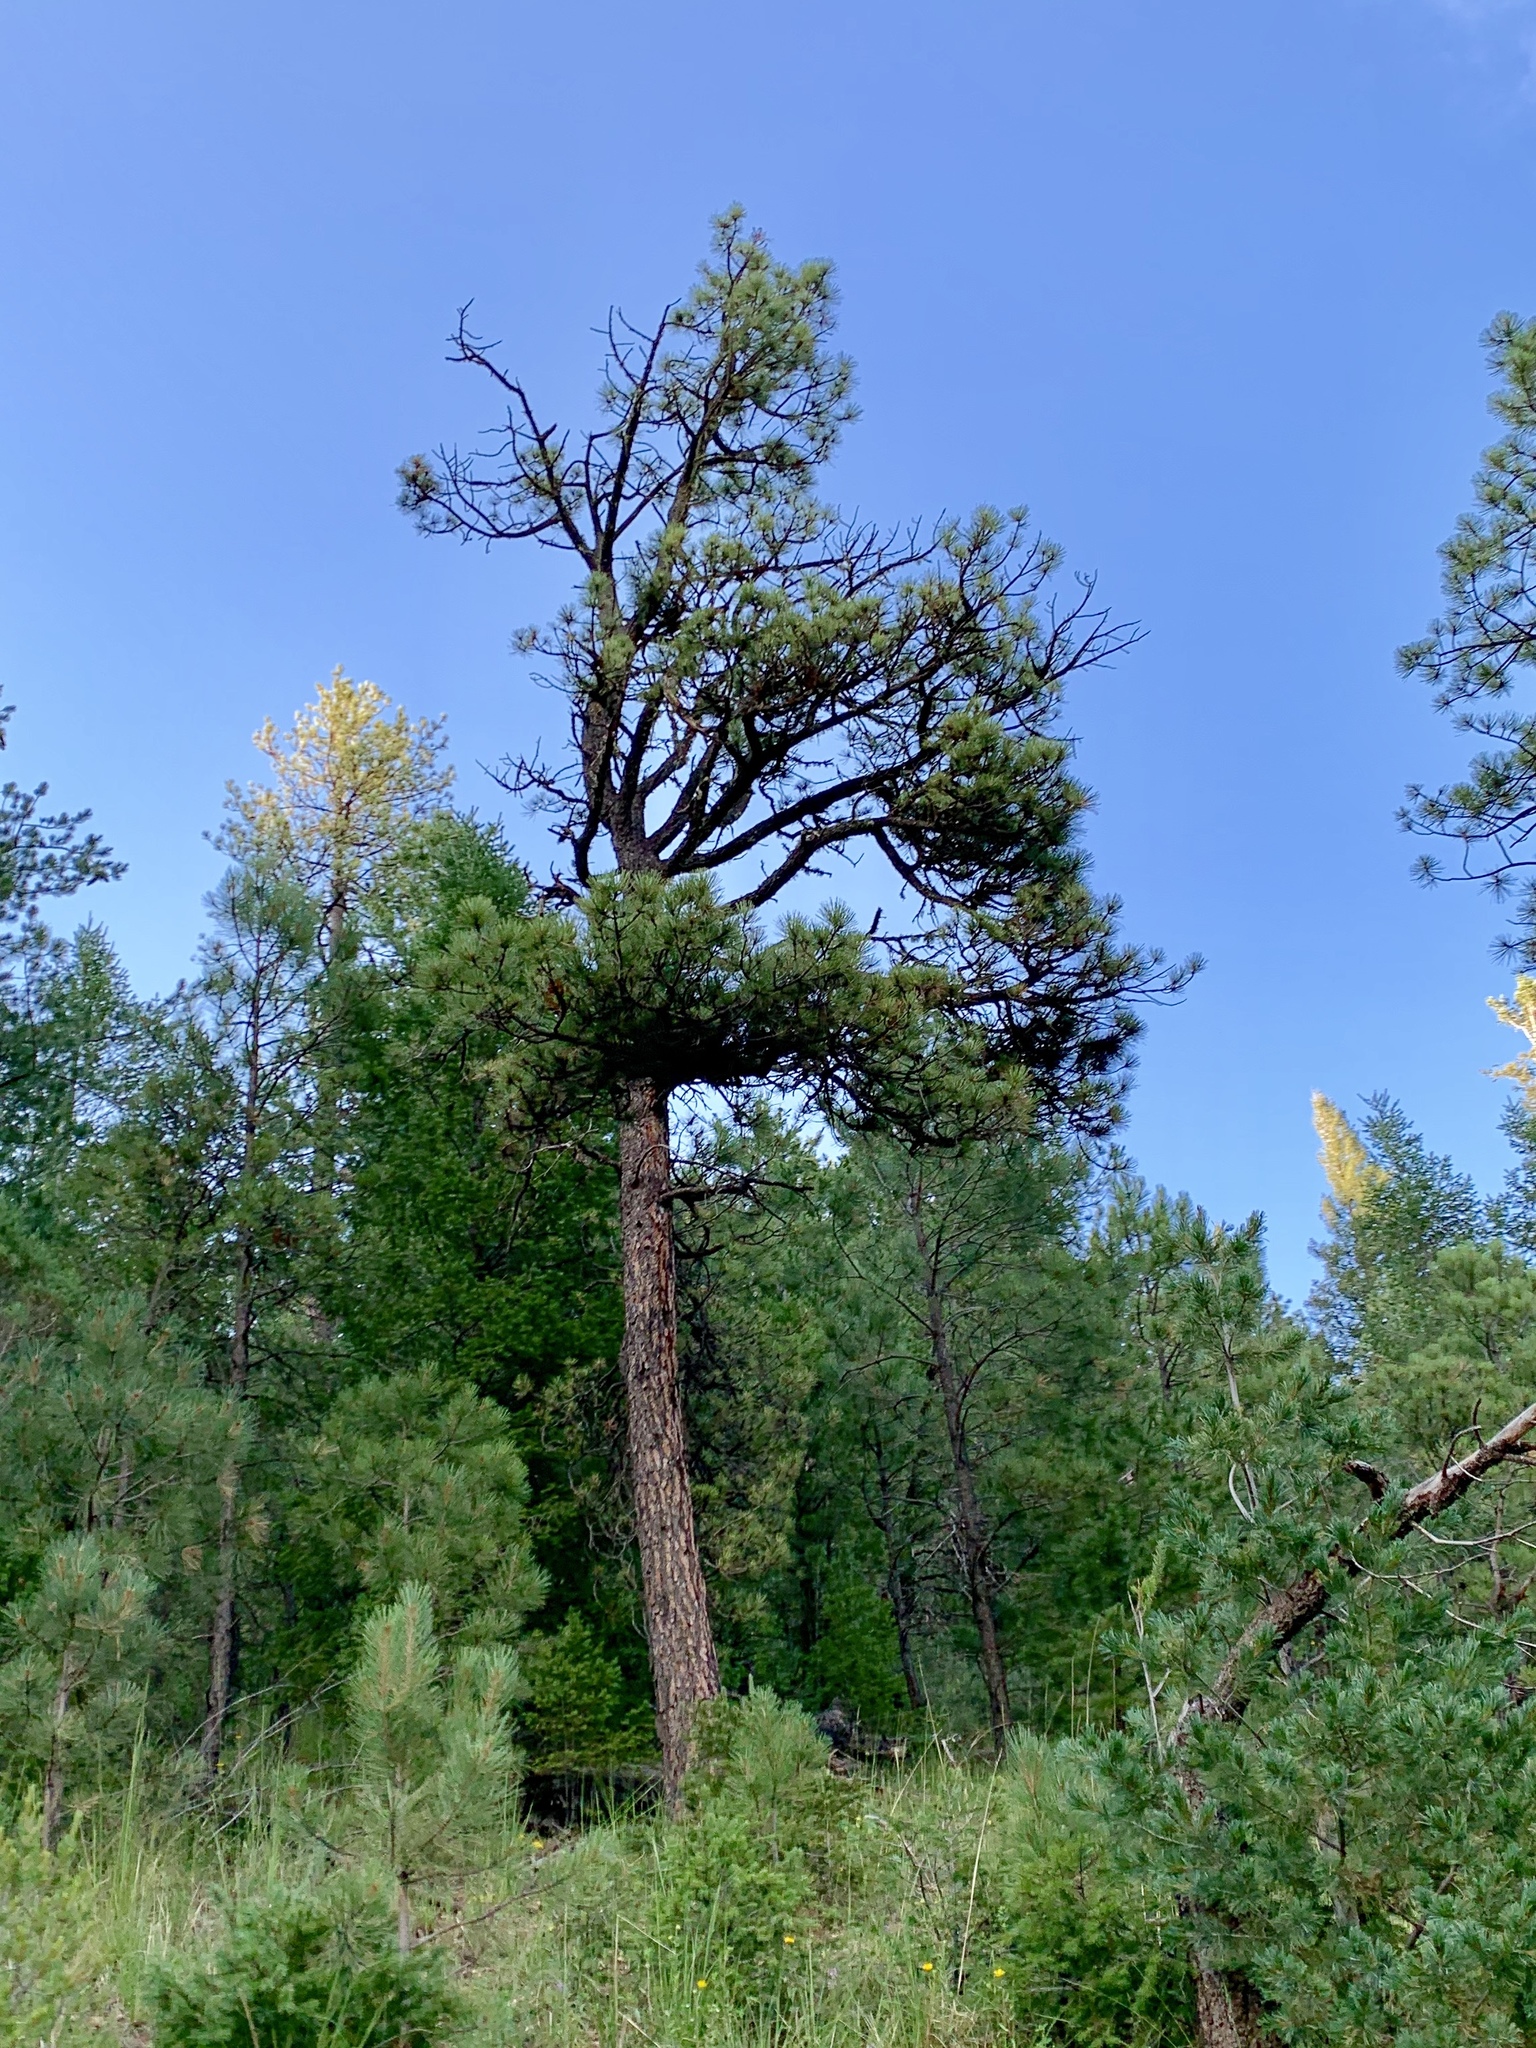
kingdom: Plantae
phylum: Tracheophyta
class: Pinopsida
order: Pinales
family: Pinaceae
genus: Pinus
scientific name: Pinus ponderosa
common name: Western yellow-pine
